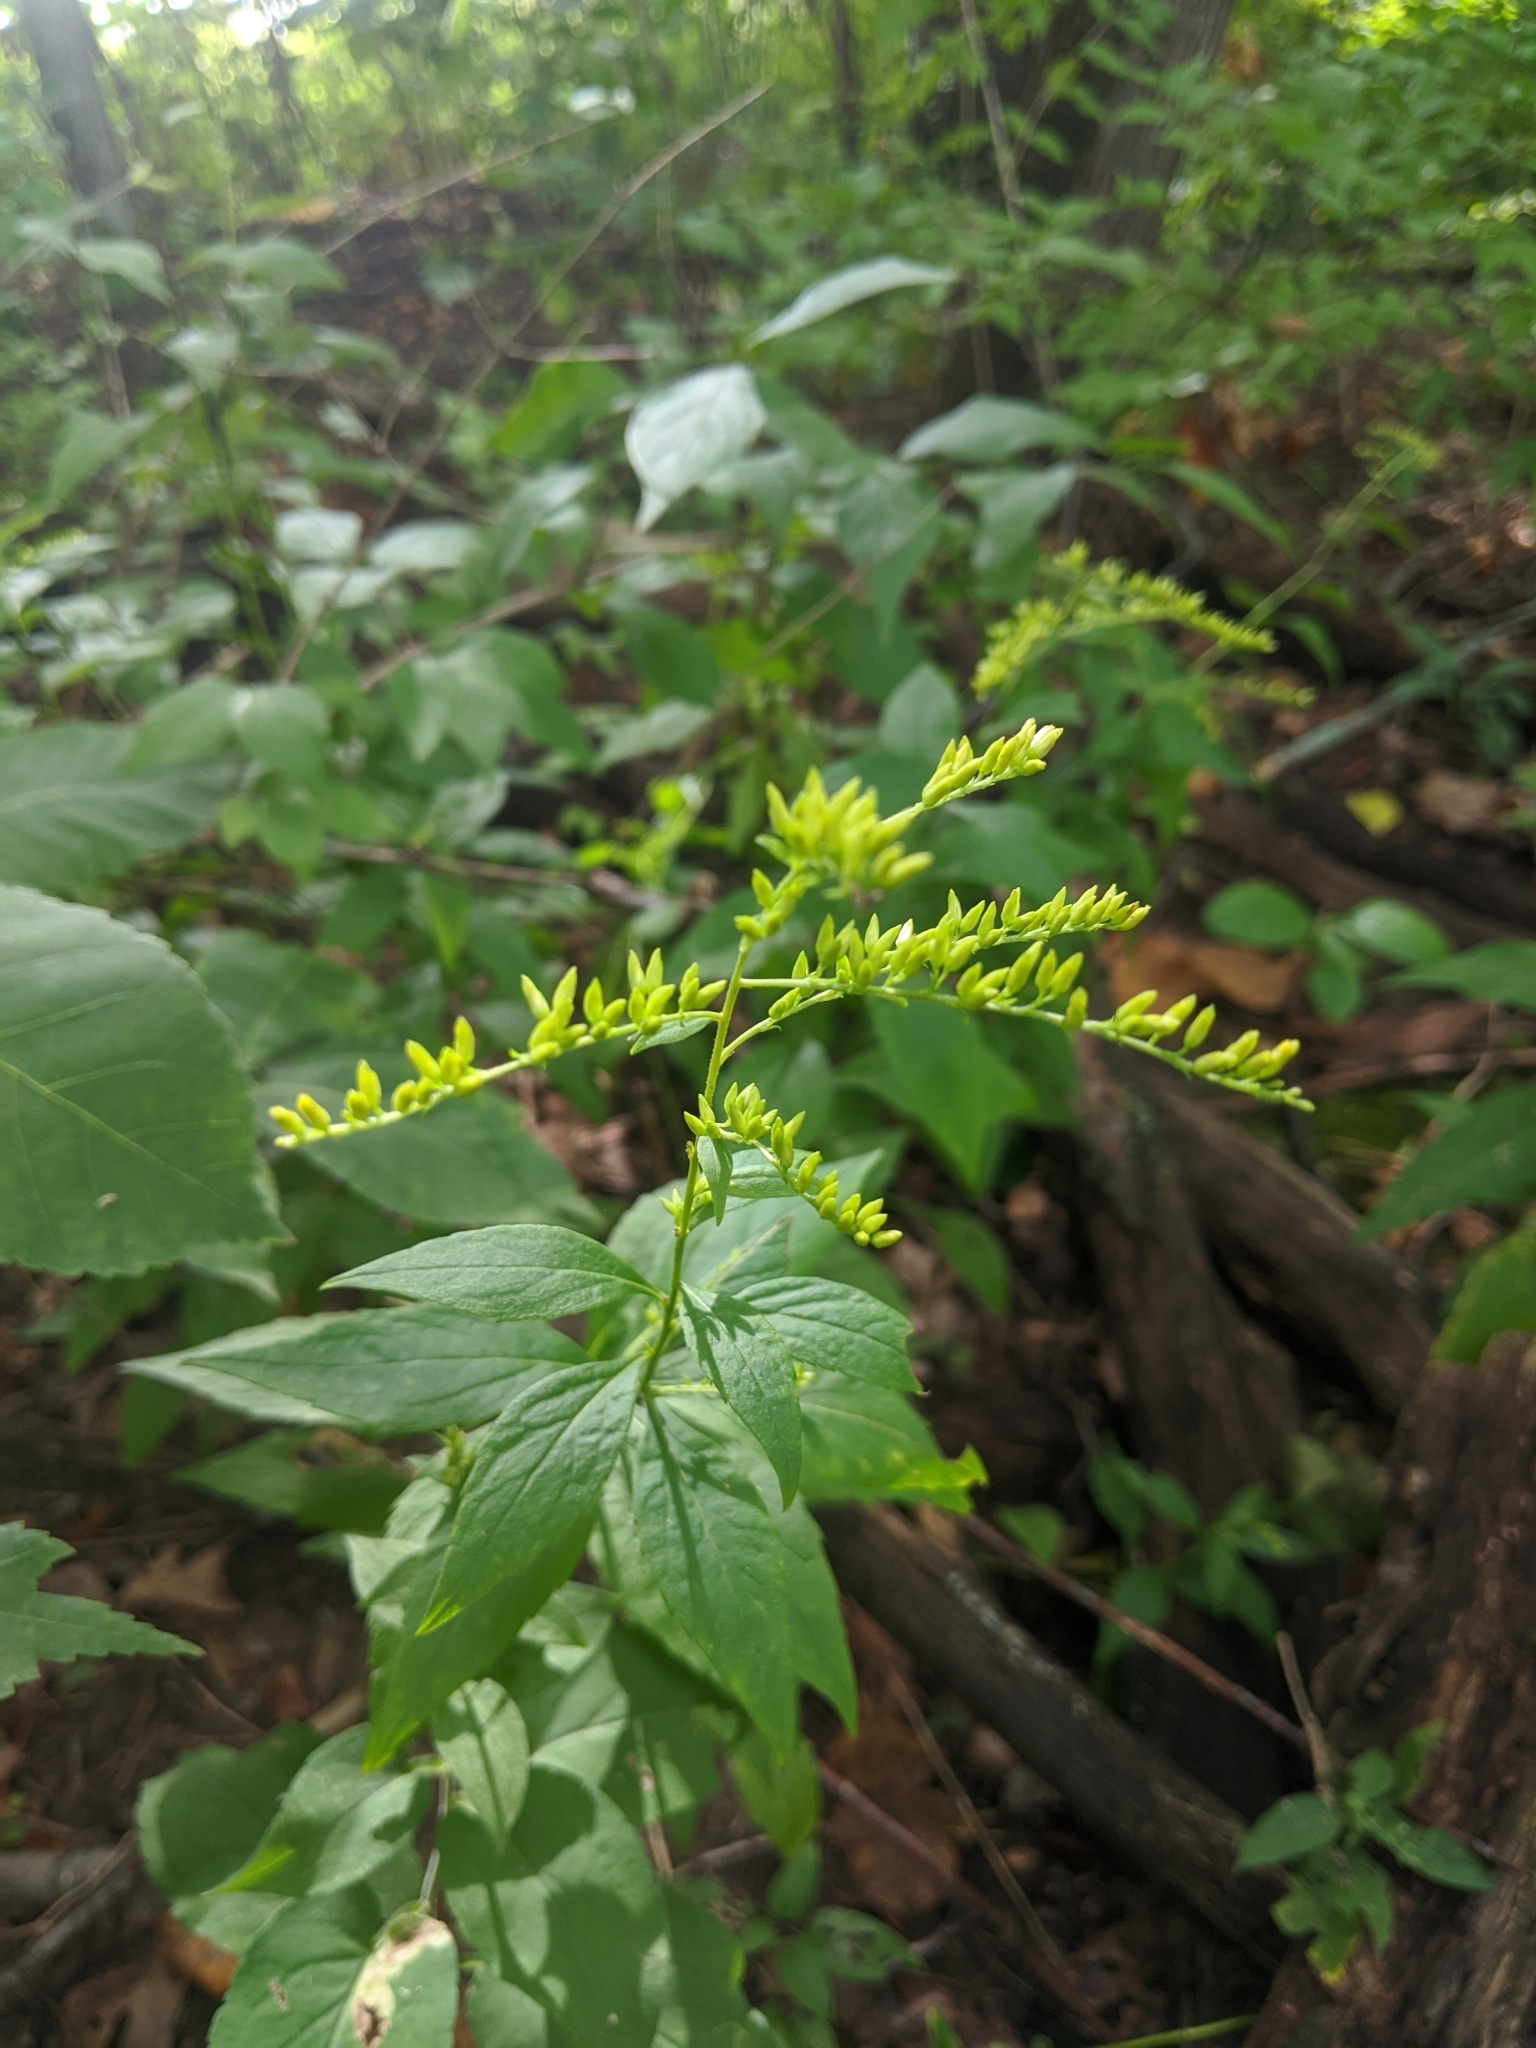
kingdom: Plantae
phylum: Tracheophyta
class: Magnoliopsida
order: Asterales
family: Asteraceae
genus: Solidago
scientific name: Solidago ulmifolia
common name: Elm-leaf goldenrod
